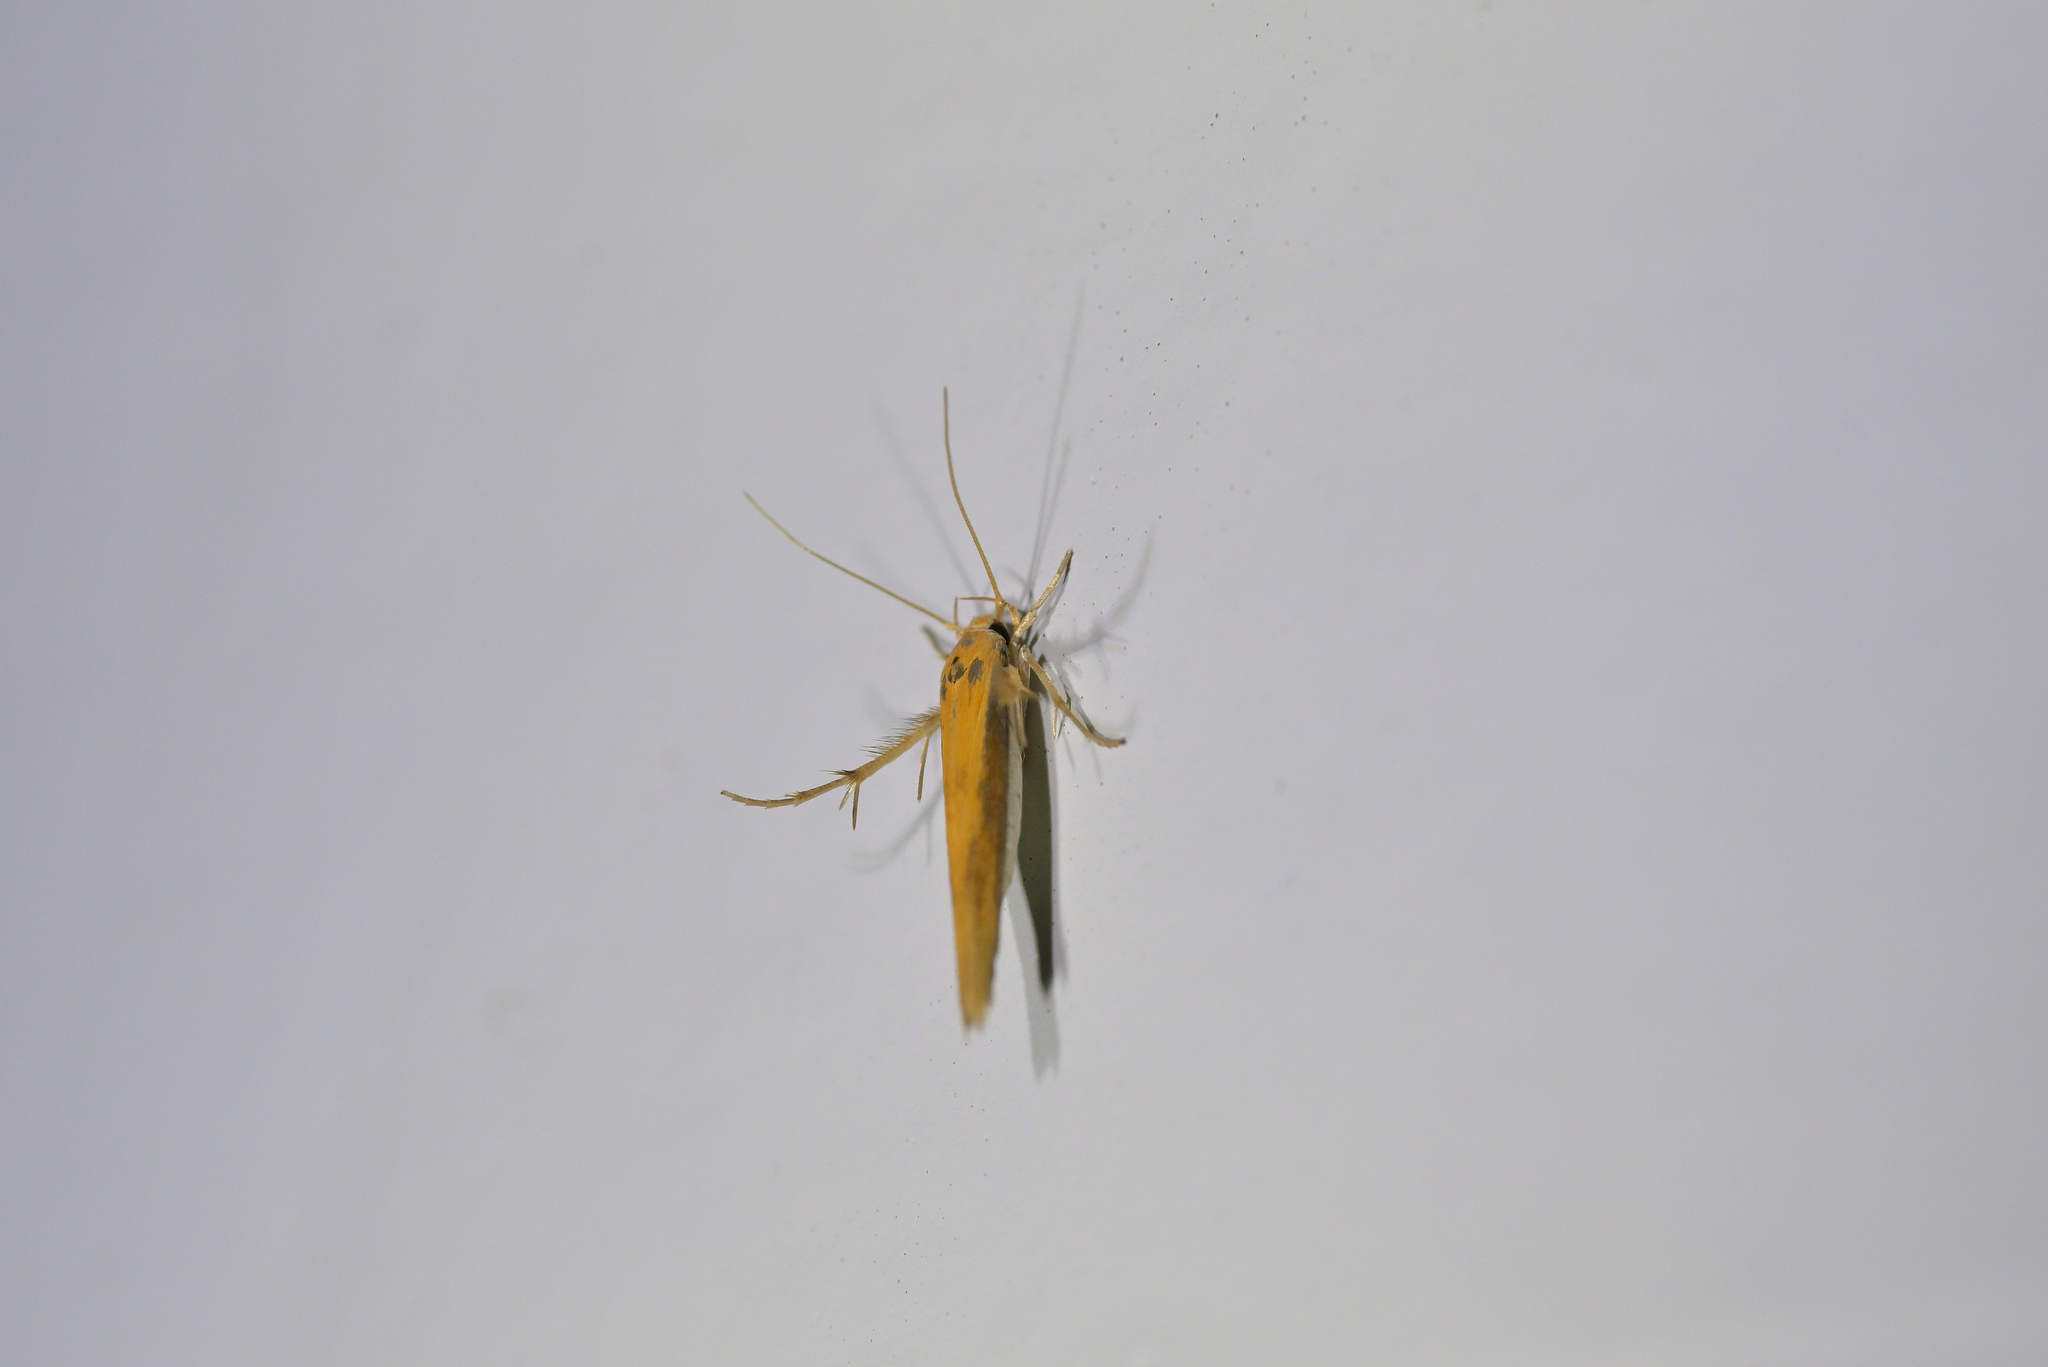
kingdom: Animalia
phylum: Arthropoda
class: Insecta
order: Lepidoptera
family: Stathmopodidae
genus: Stathmopoda
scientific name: Stathmopoda skelloni
